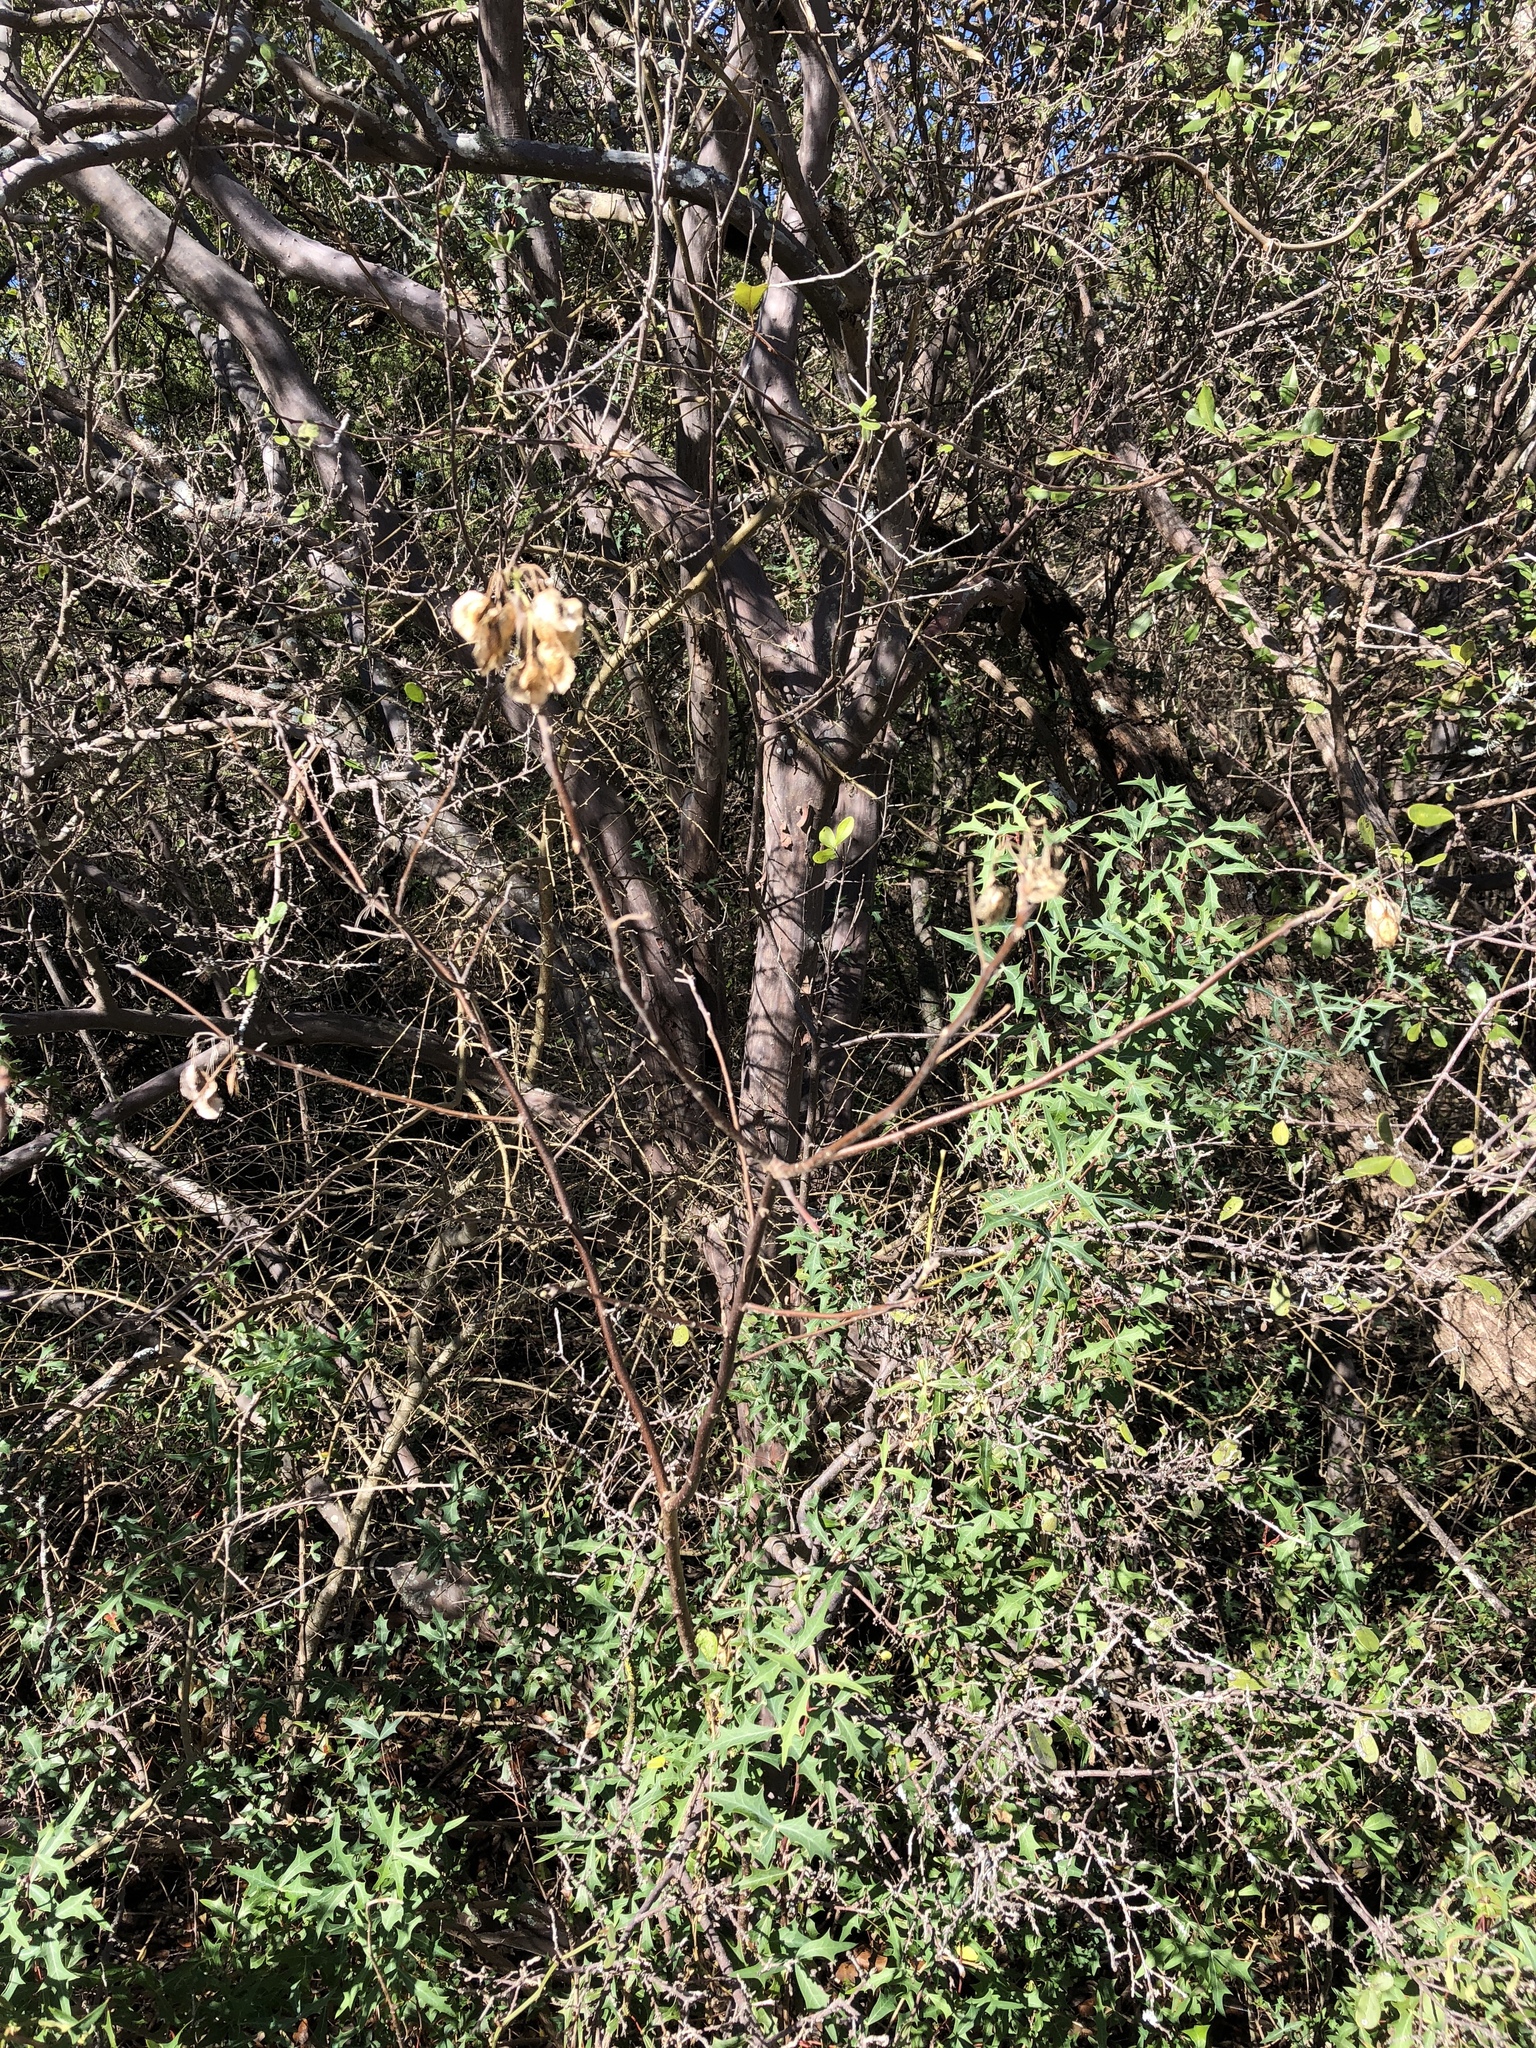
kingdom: Plantae
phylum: Tracheophyta
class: Magnoliopsida
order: Sapindales
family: Rutaceae
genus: Ptelea
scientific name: Ptelea trifoliata
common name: Common hop-tree
